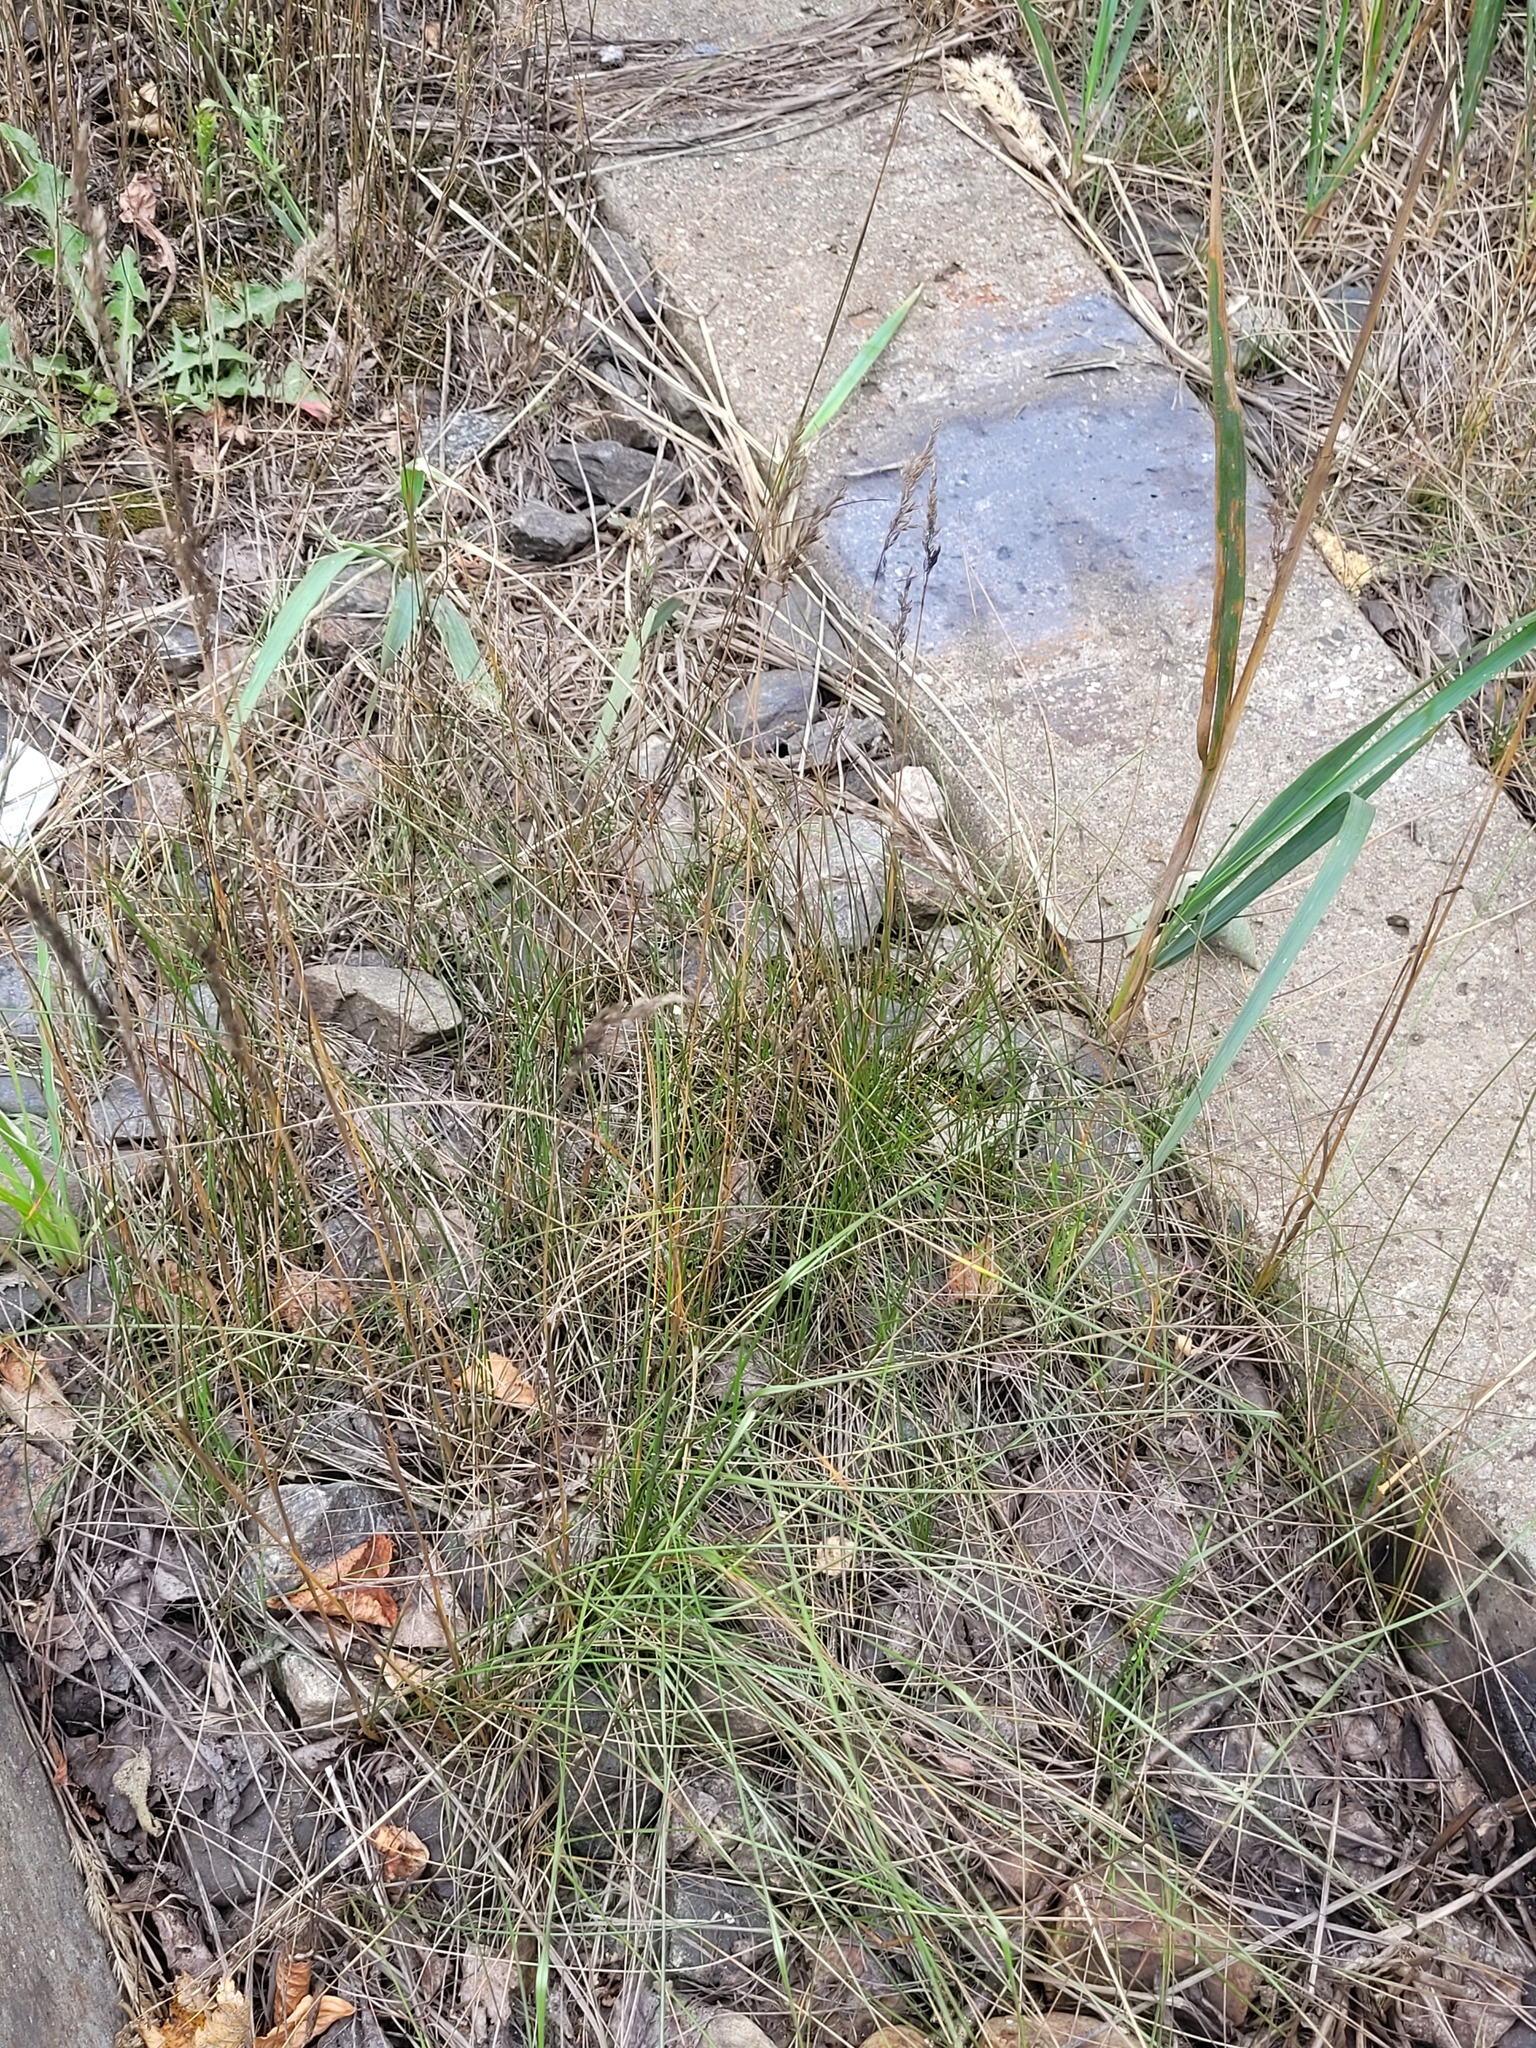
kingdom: Plantae
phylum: Tracheophyta
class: Liliopsida
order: Poales
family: Poaceae
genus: Poa
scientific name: Poa angustifolia
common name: Narrow-leaved meadow-grass
